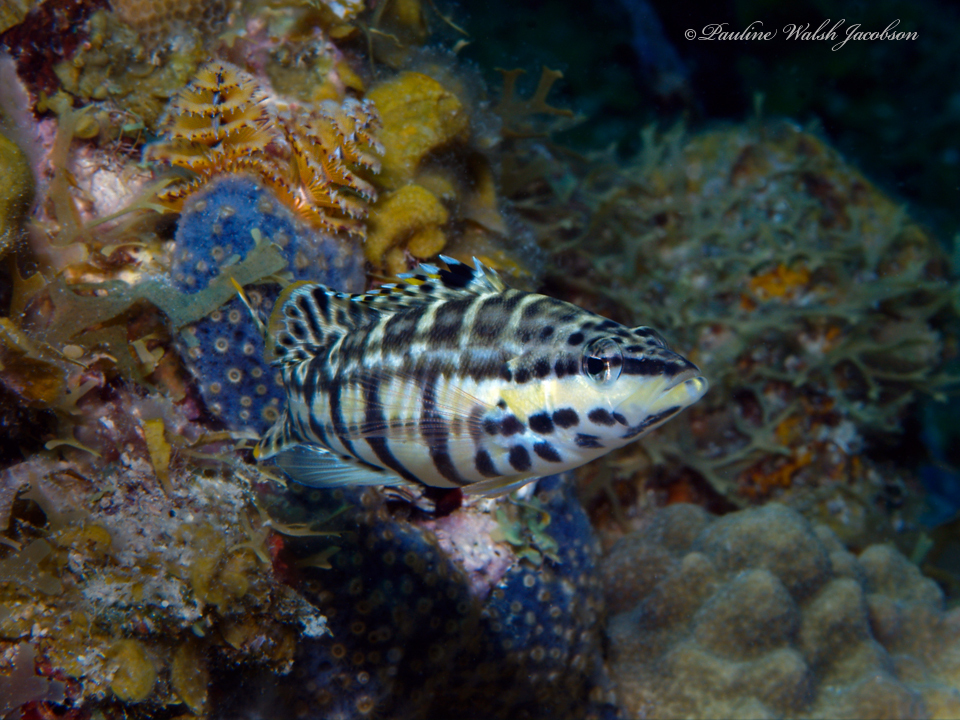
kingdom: Animalia
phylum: Chordata
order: Perciformes
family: Serranidae
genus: Serranus
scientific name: Serranus tigrinus
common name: Harlequin bass
